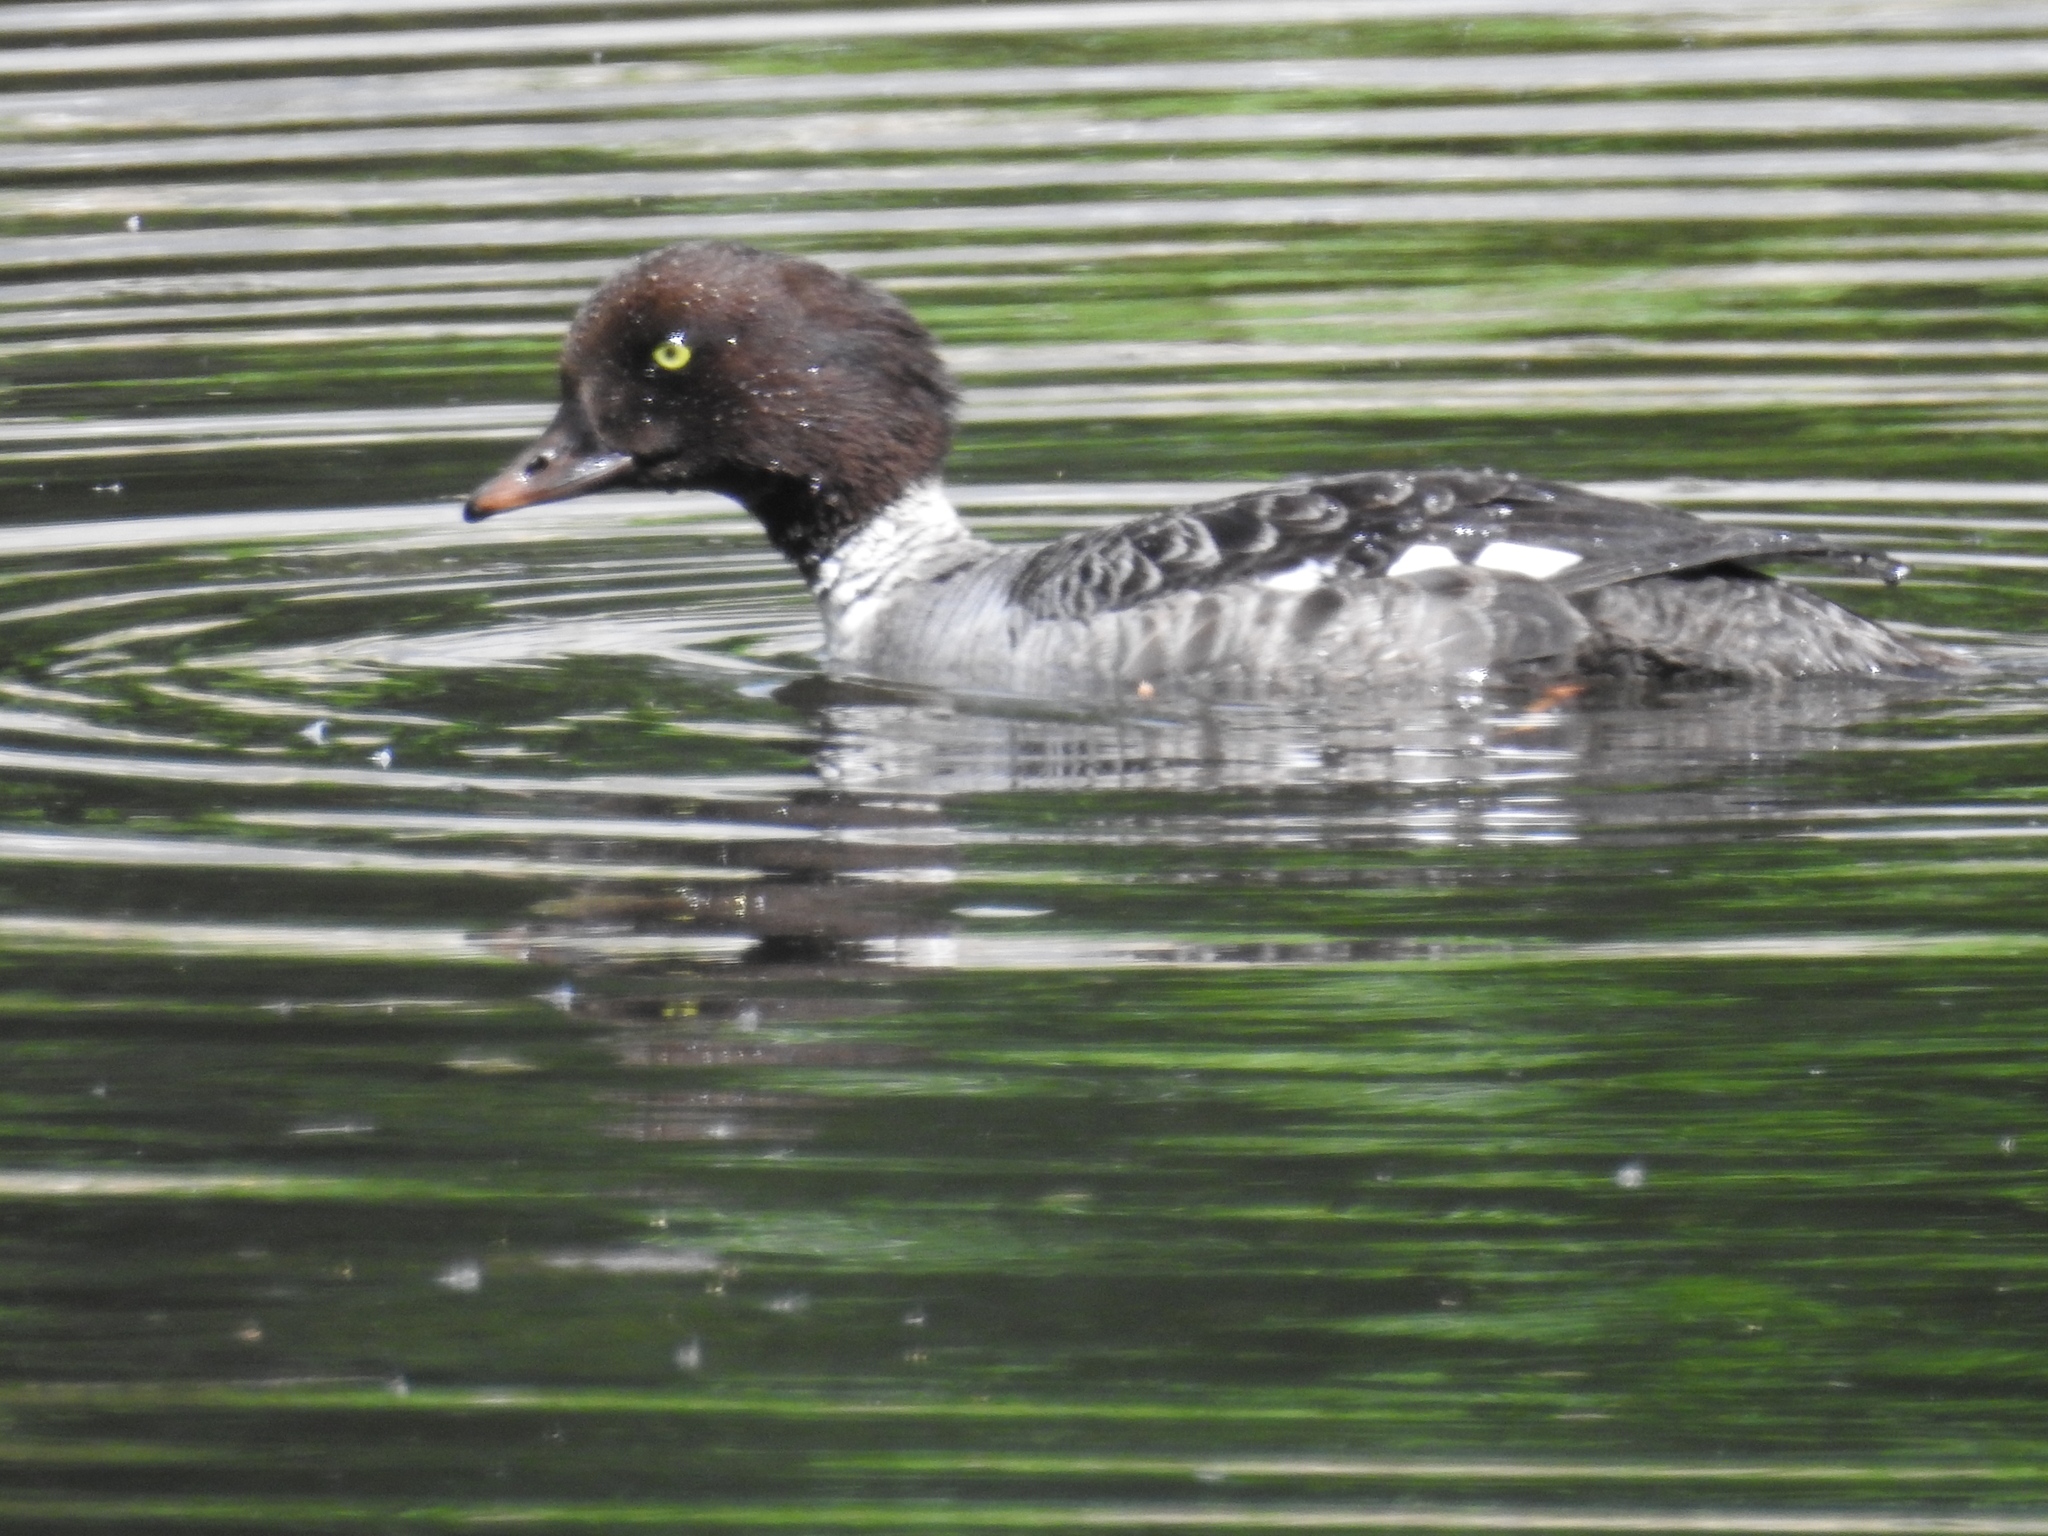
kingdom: Animalia
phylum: Chordata
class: Aves
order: Anseriformes
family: Anatidae
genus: Bucephala
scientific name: Bucephala islandica
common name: Barrow's goldeneye
